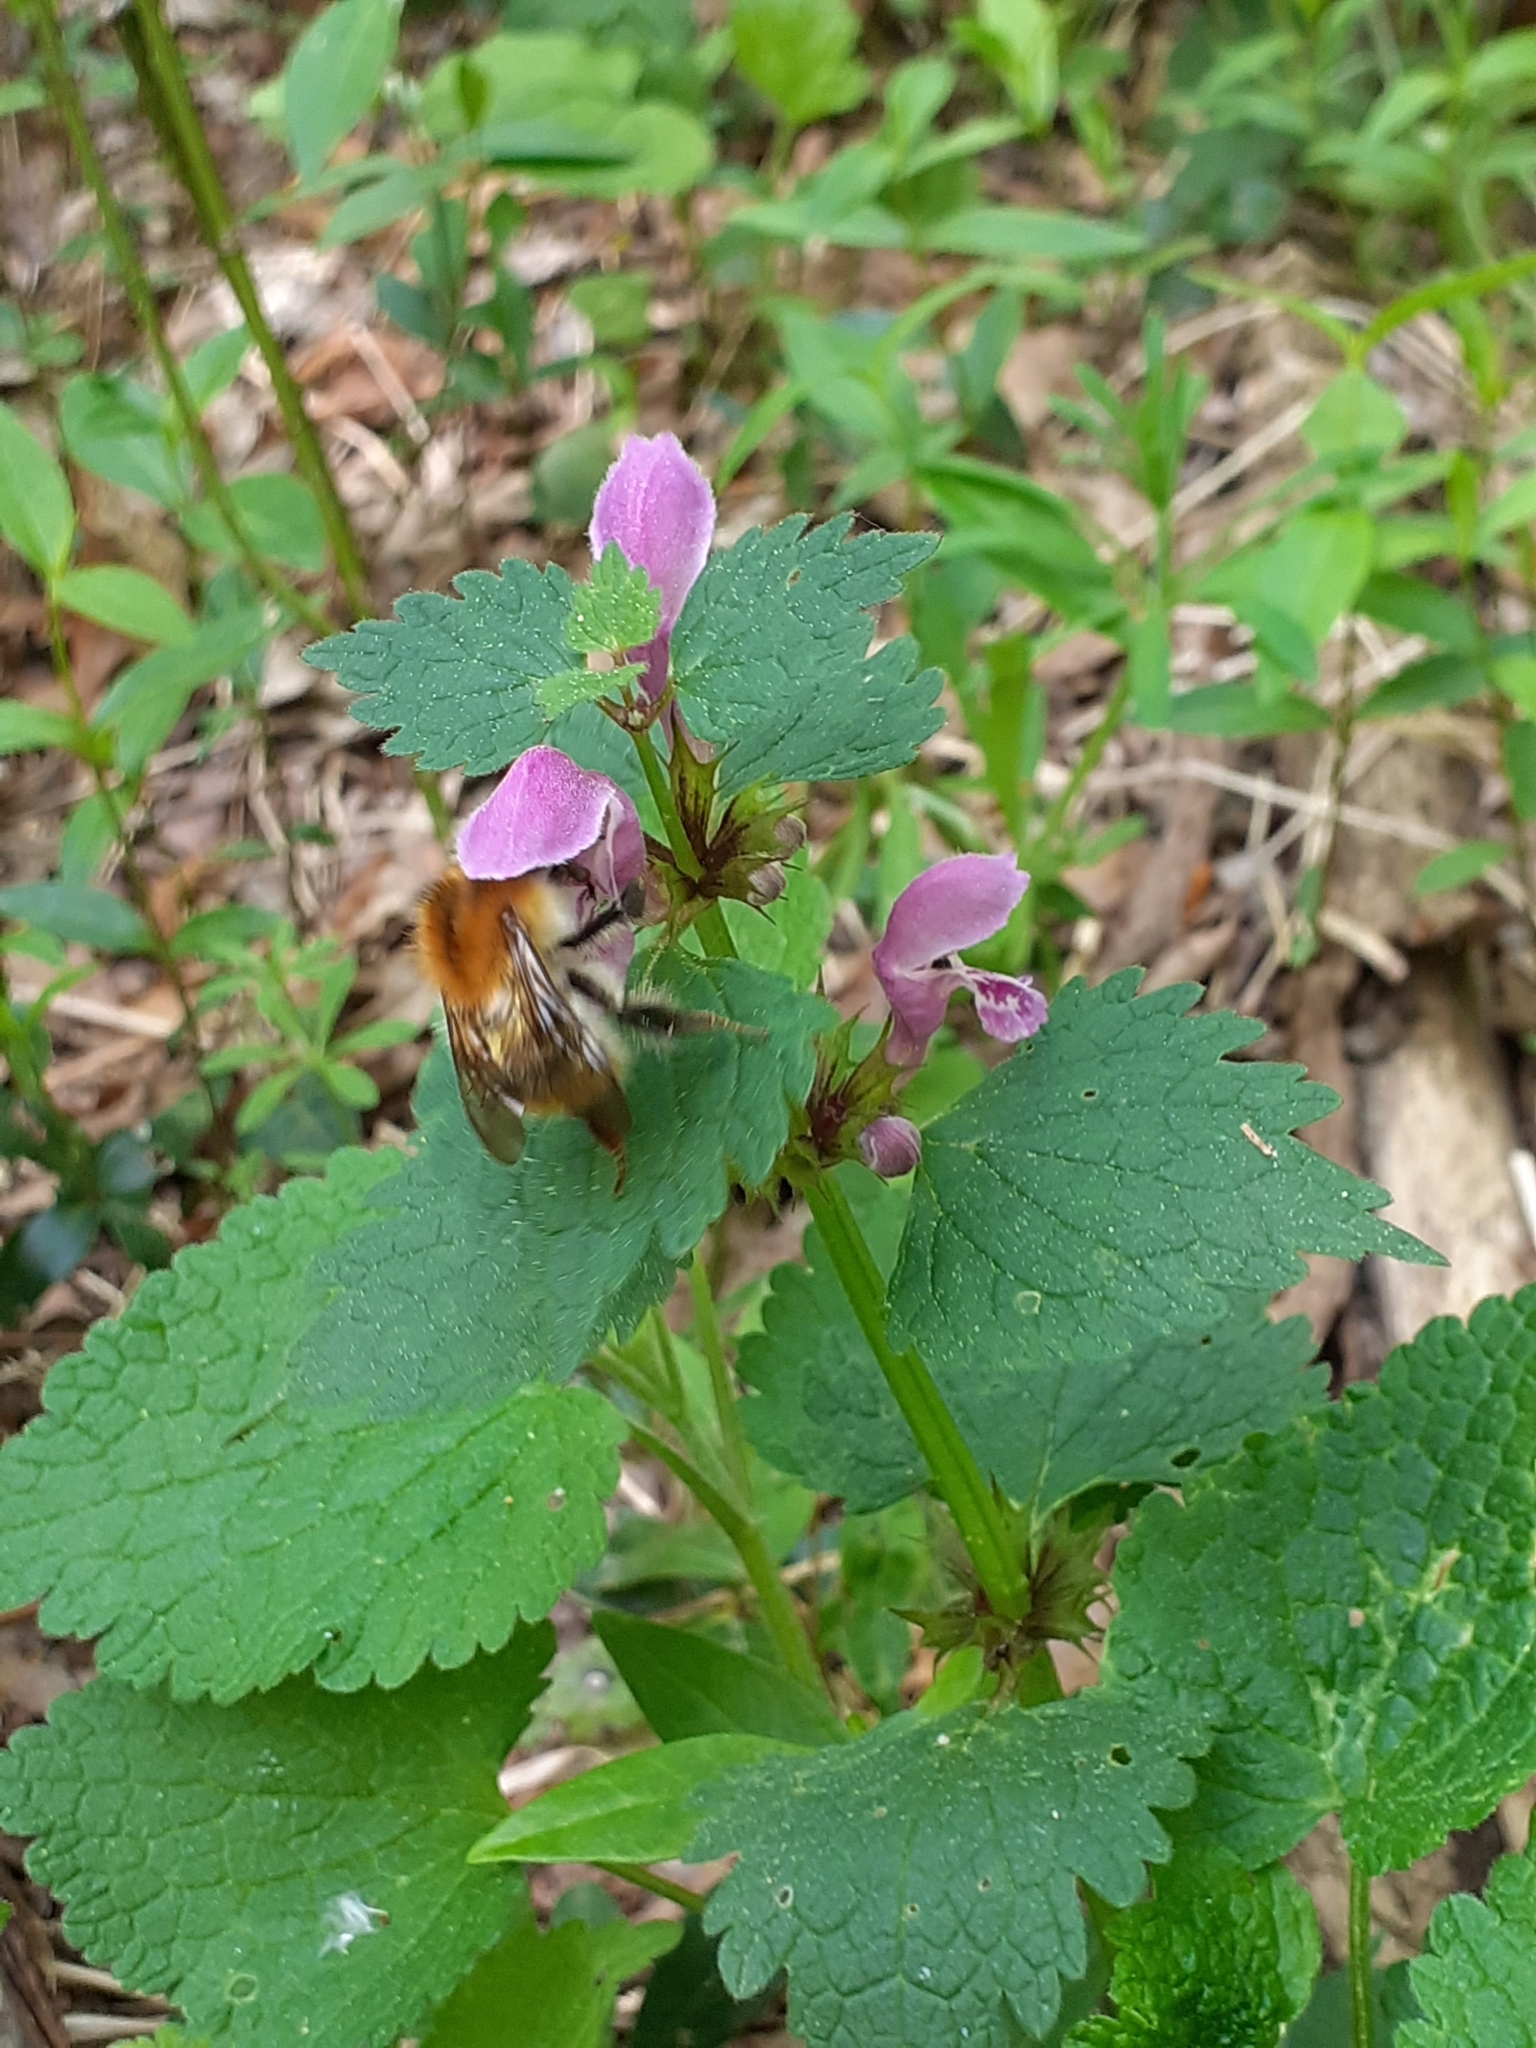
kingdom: Animalia
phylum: Arthropoda
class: Insecta
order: Hymenoptera
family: Apidae
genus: Bombus
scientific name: Bombus pascuorum
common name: Common carder bee
